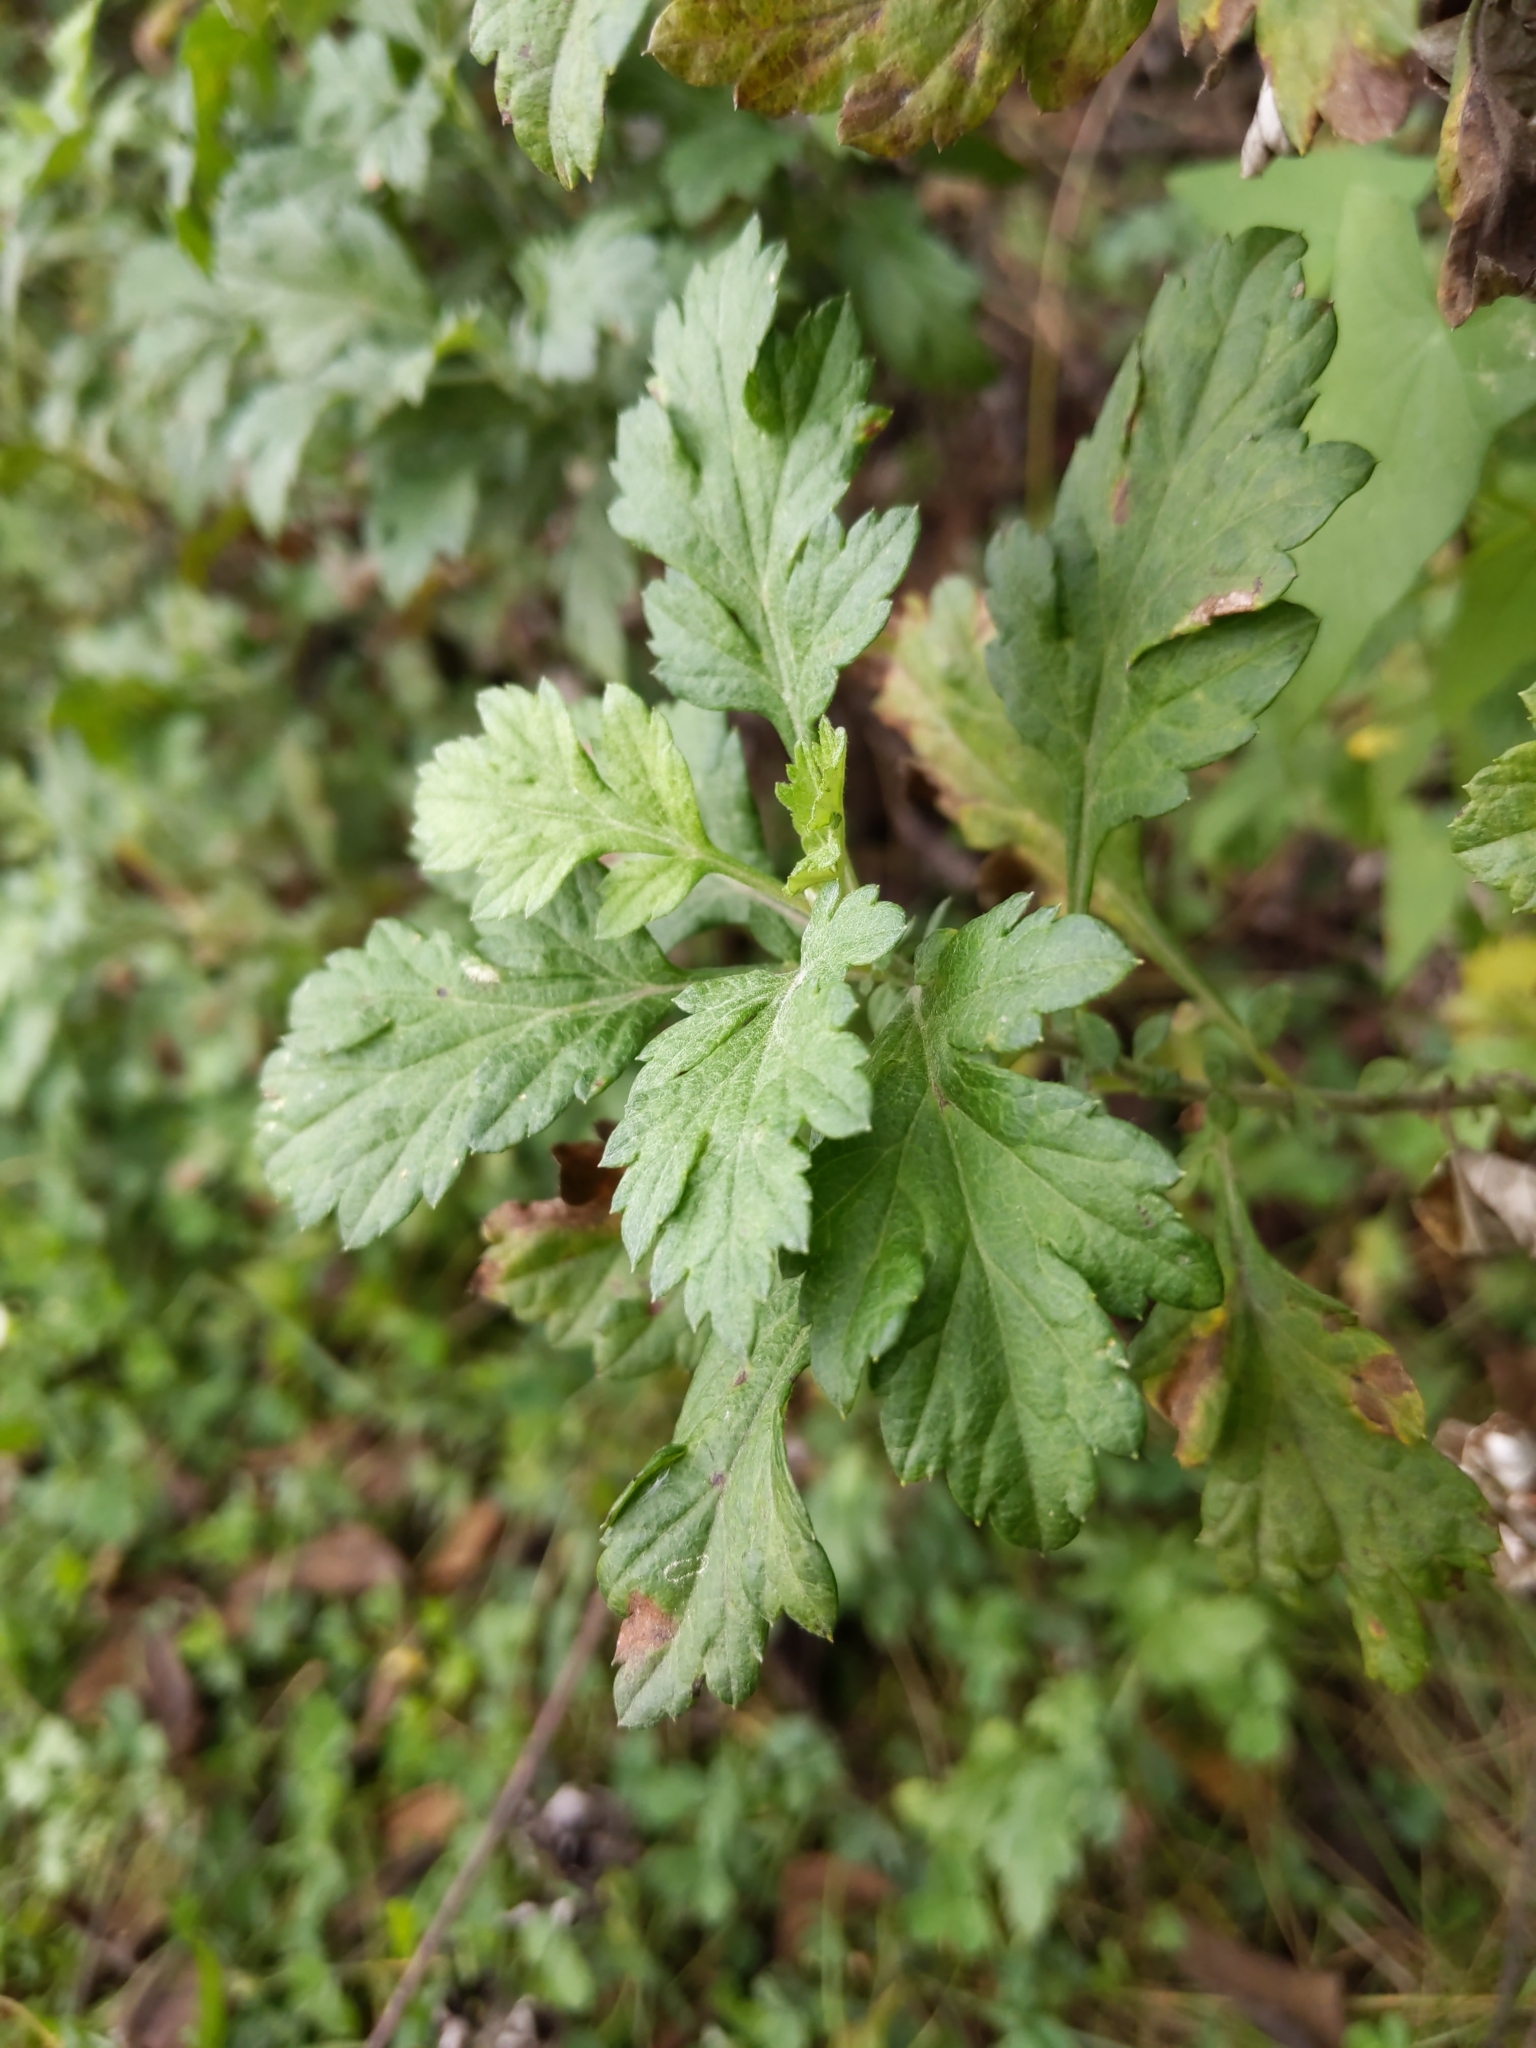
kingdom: Plantae
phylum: Tracheophyta
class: Magnoliopsida
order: Asterales
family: Asteraceae
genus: Artemisia
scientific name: Artemisia vulgaris
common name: Mugwort
